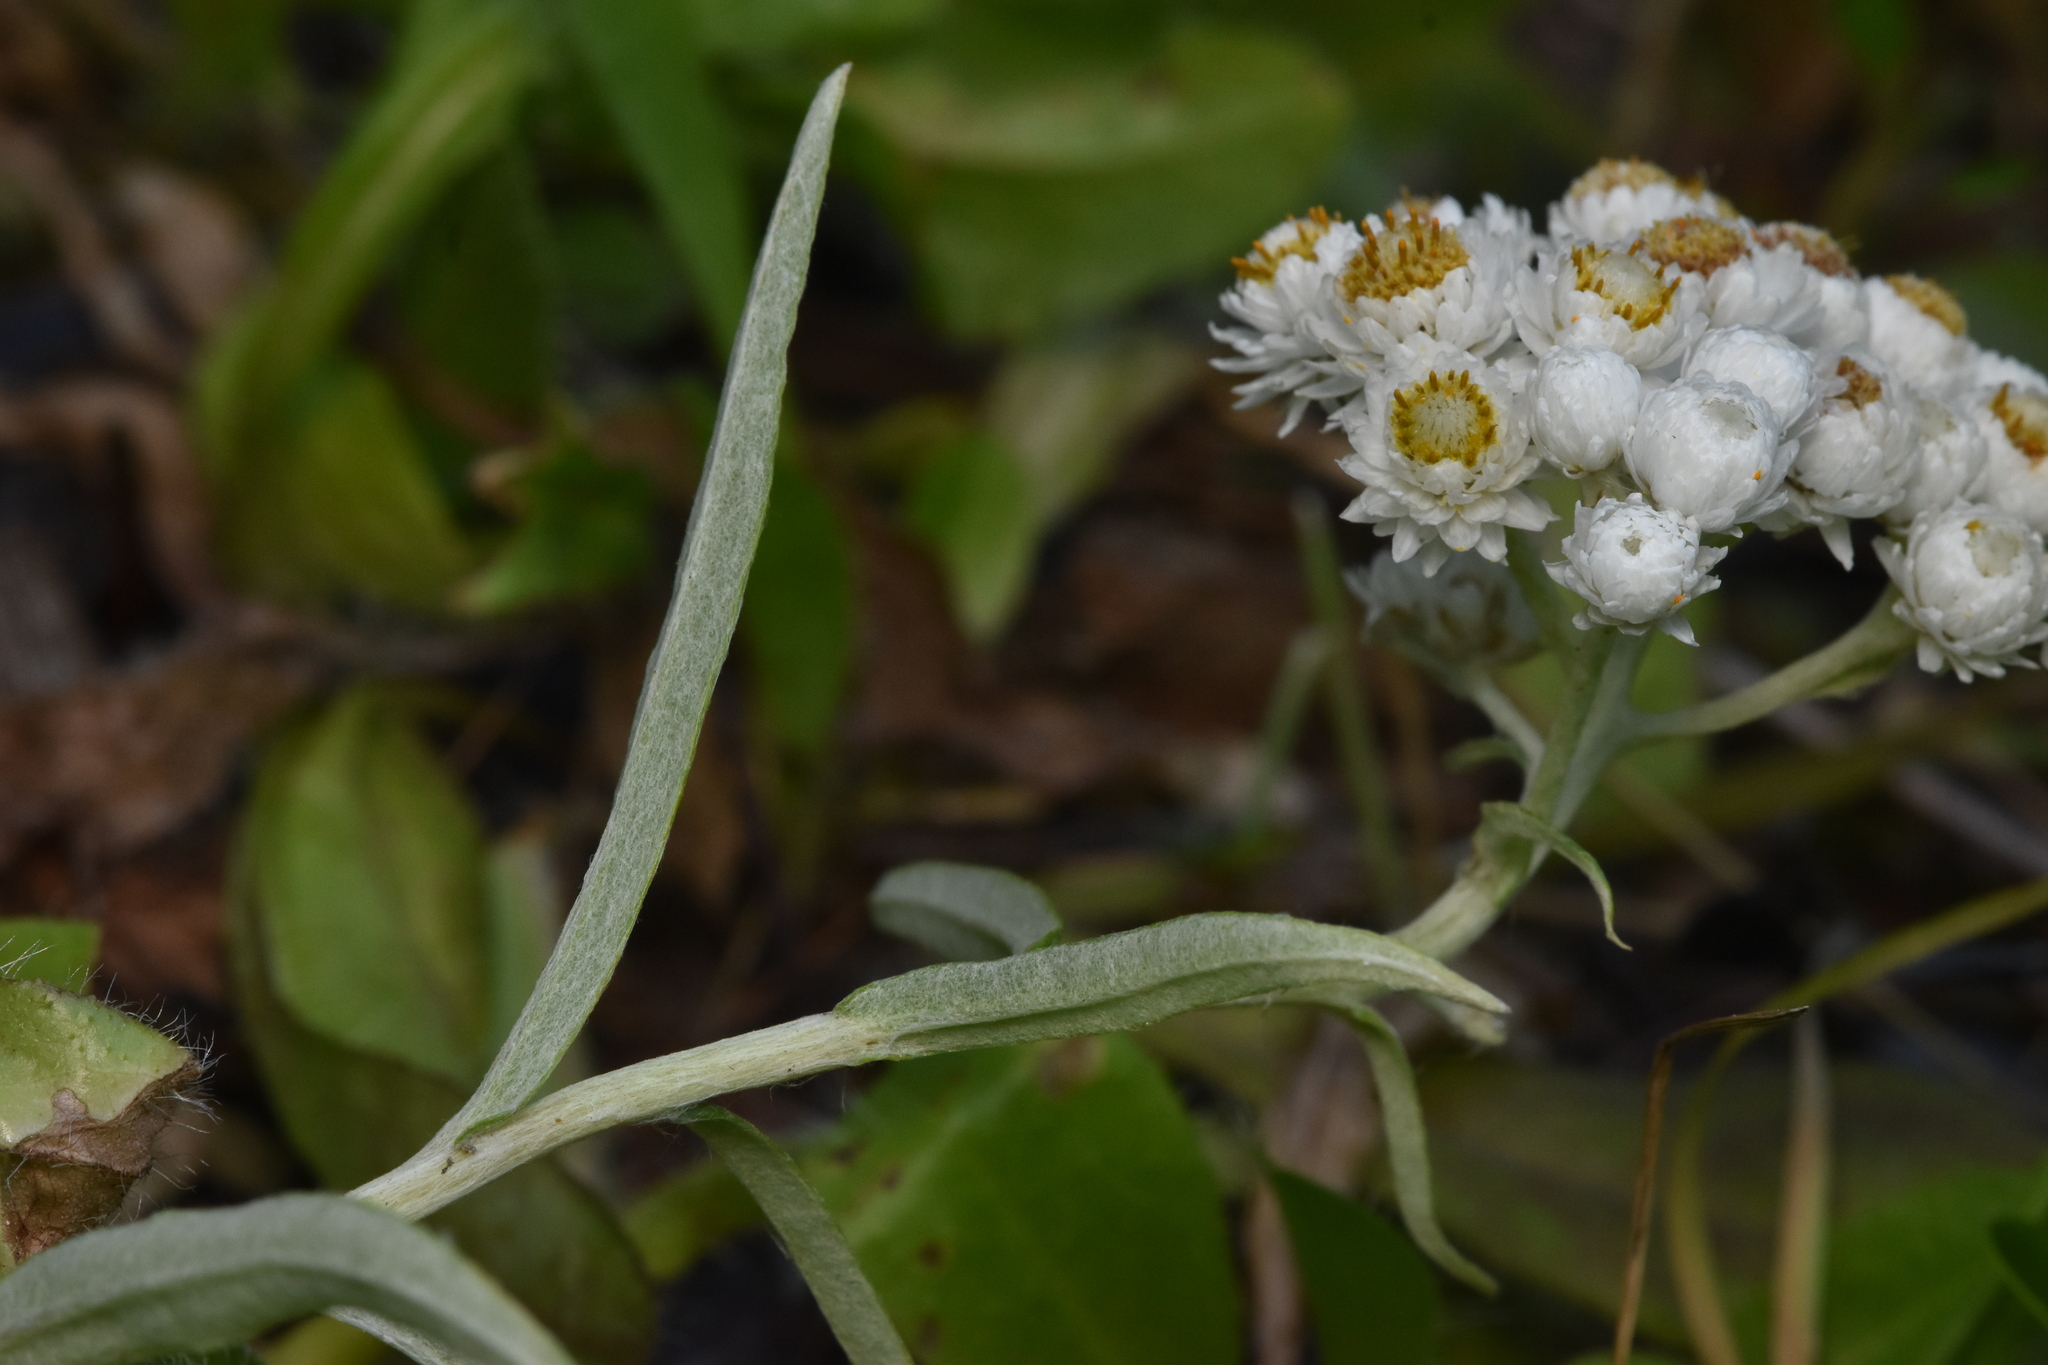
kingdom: Plantae
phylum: Tracheophyta
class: Magnoliopsida
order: Asterales
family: Asteraceae
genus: Anaphalis
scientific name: Anaphalis margaritacea
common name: Pearly everlasting
